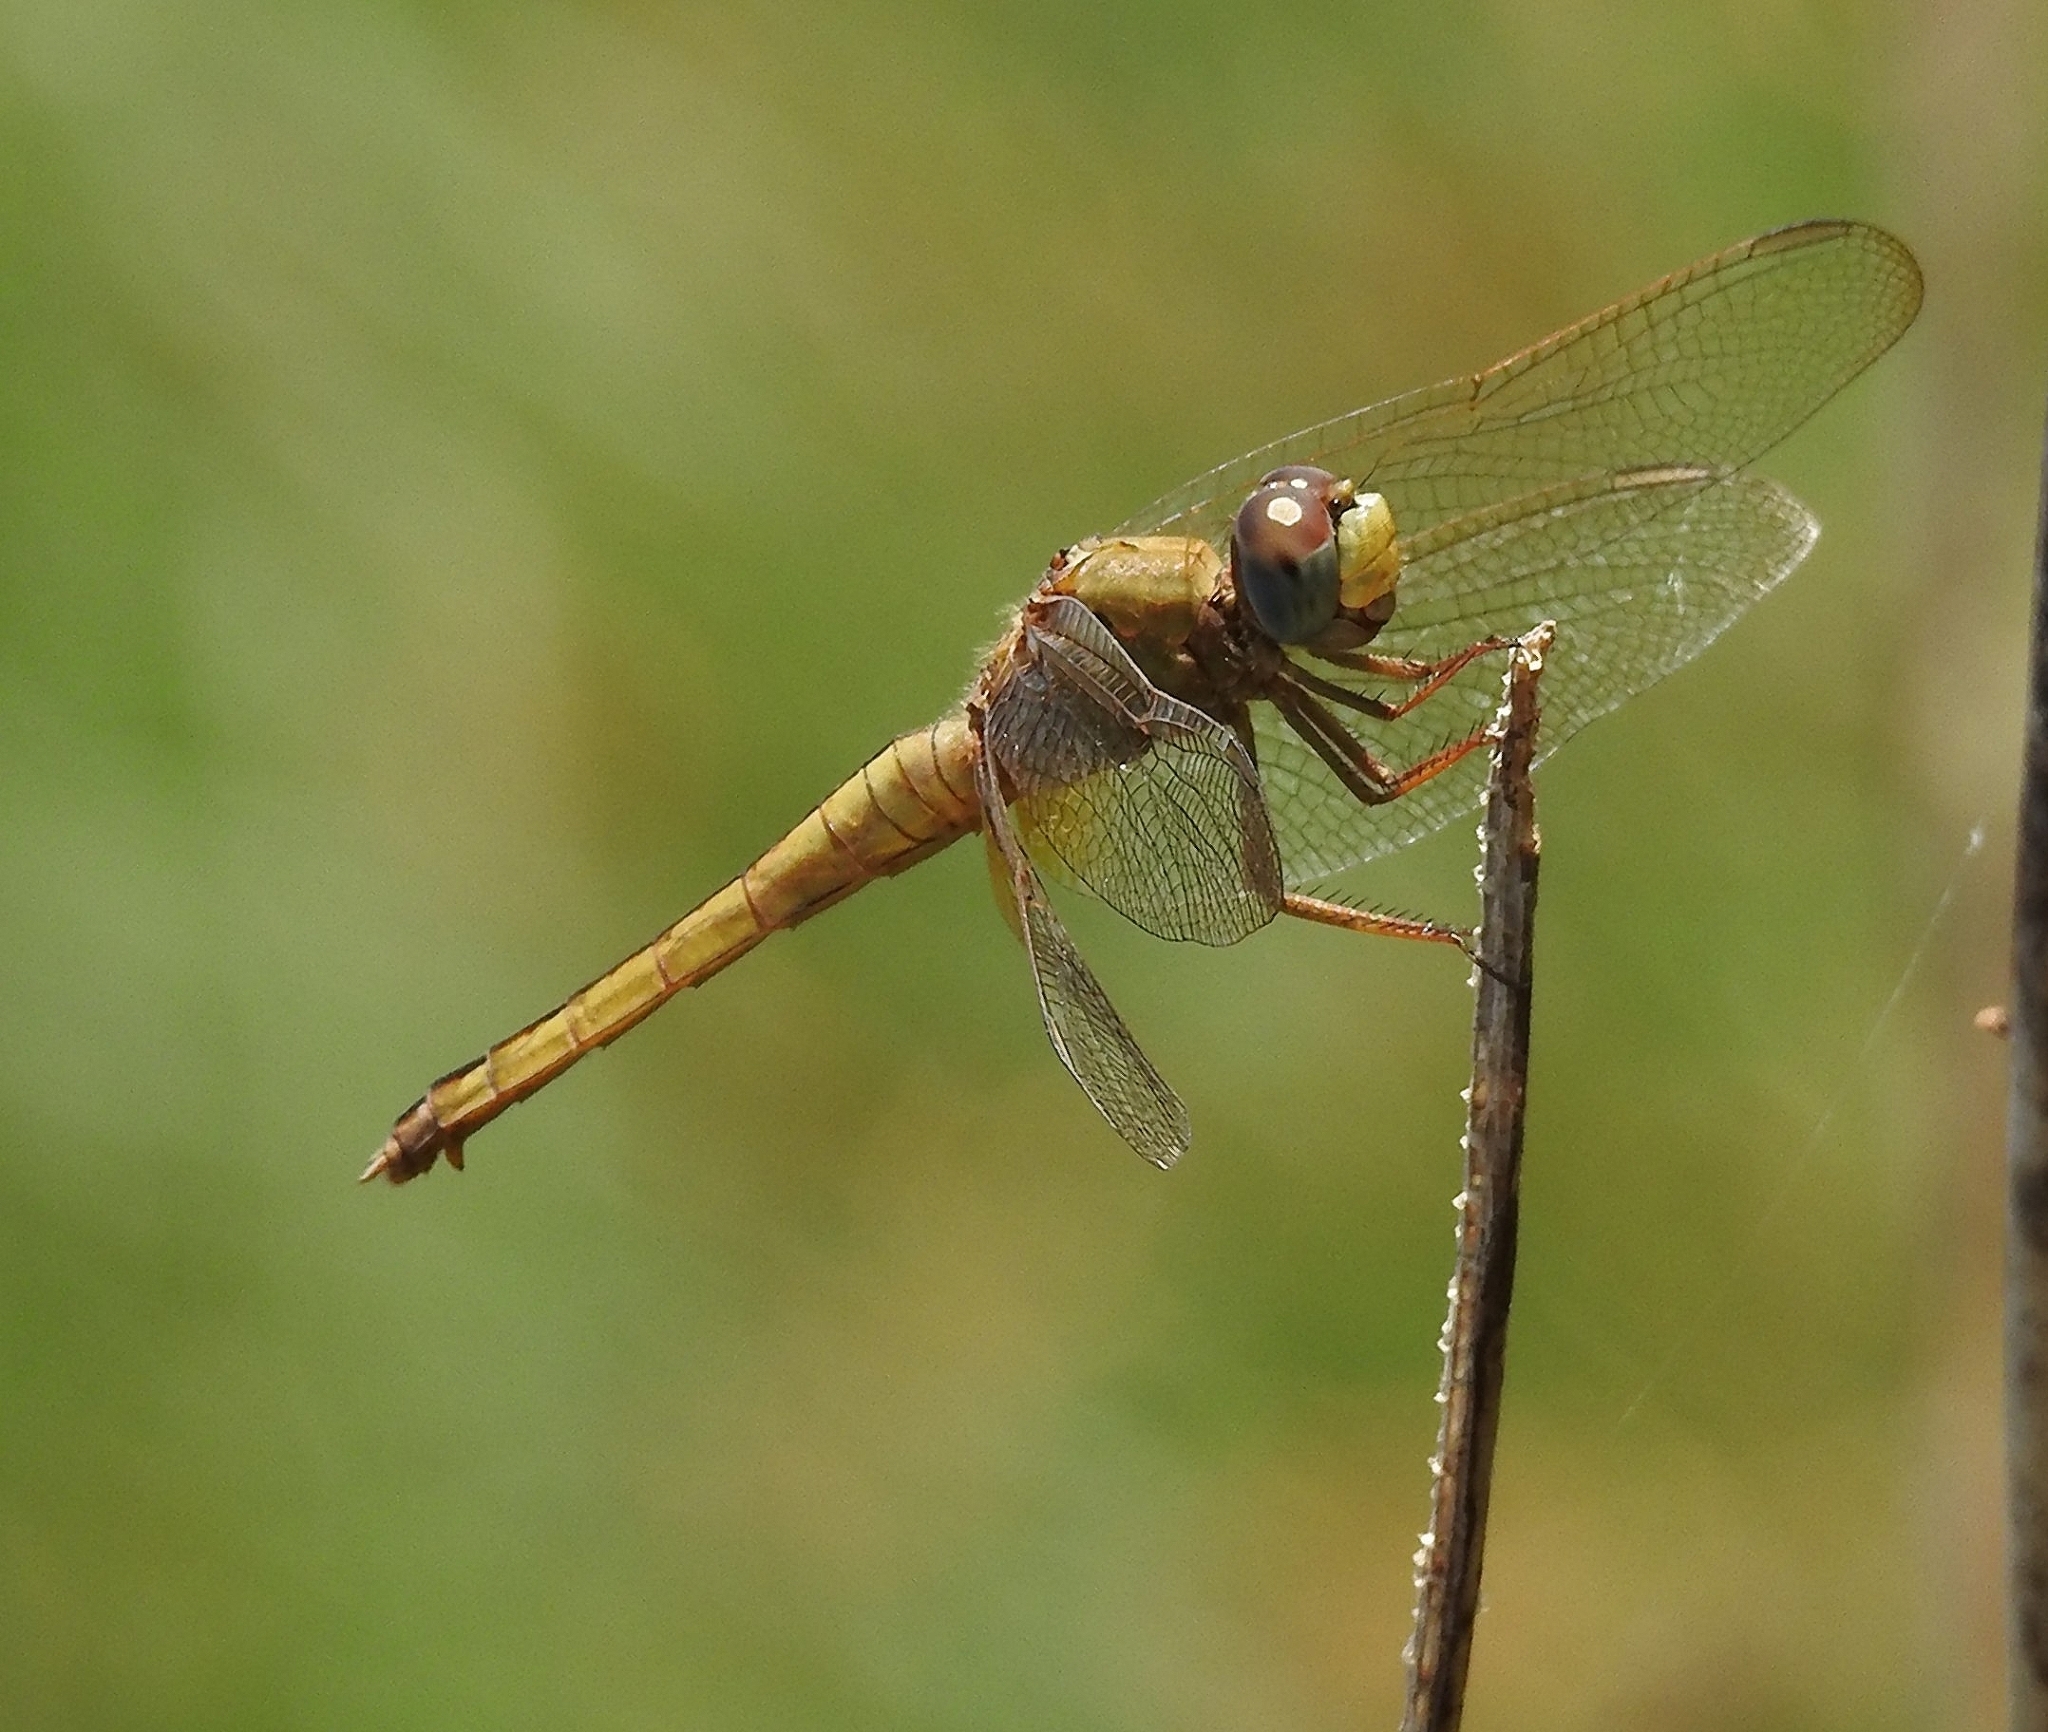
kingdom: Animalia
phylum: Arthropoda
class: Insecta
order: Odonata
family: Libellulidae
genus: Crocothemis
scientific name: Crocothemis servilia
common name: Scarlet skimmer
